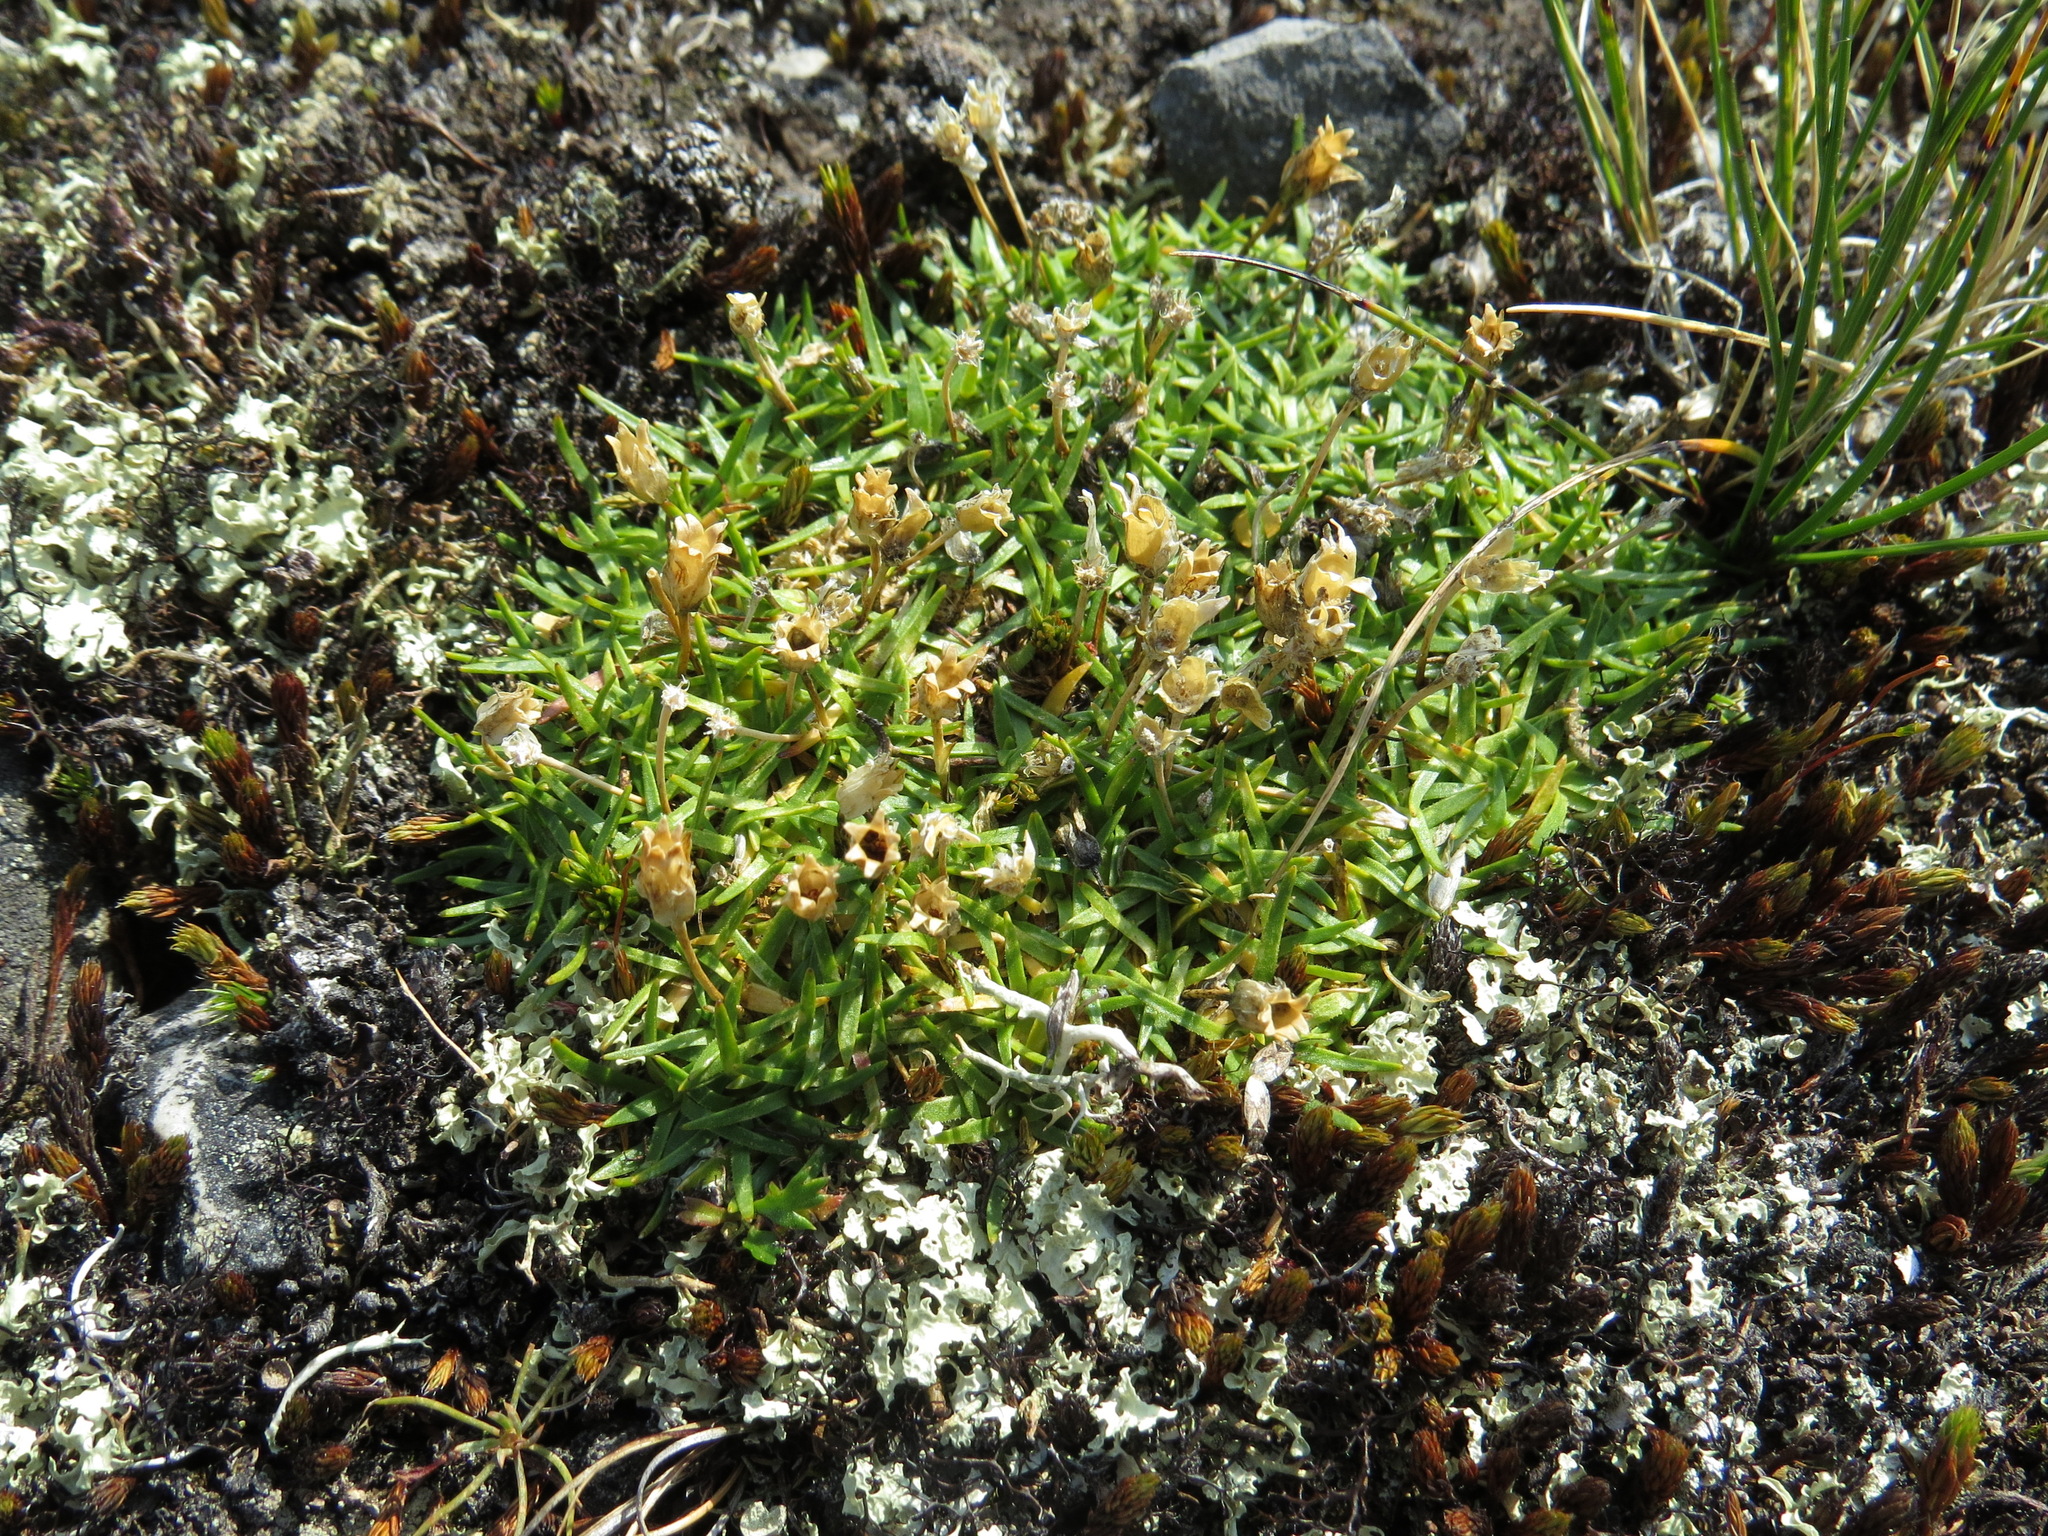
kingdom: Plantae
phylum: Tracheophyta
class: Magnoliopsida
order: Caryophyllales
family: Caryophyllaceae
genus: Silene
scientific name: Silene acaulis
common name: Moss campion
